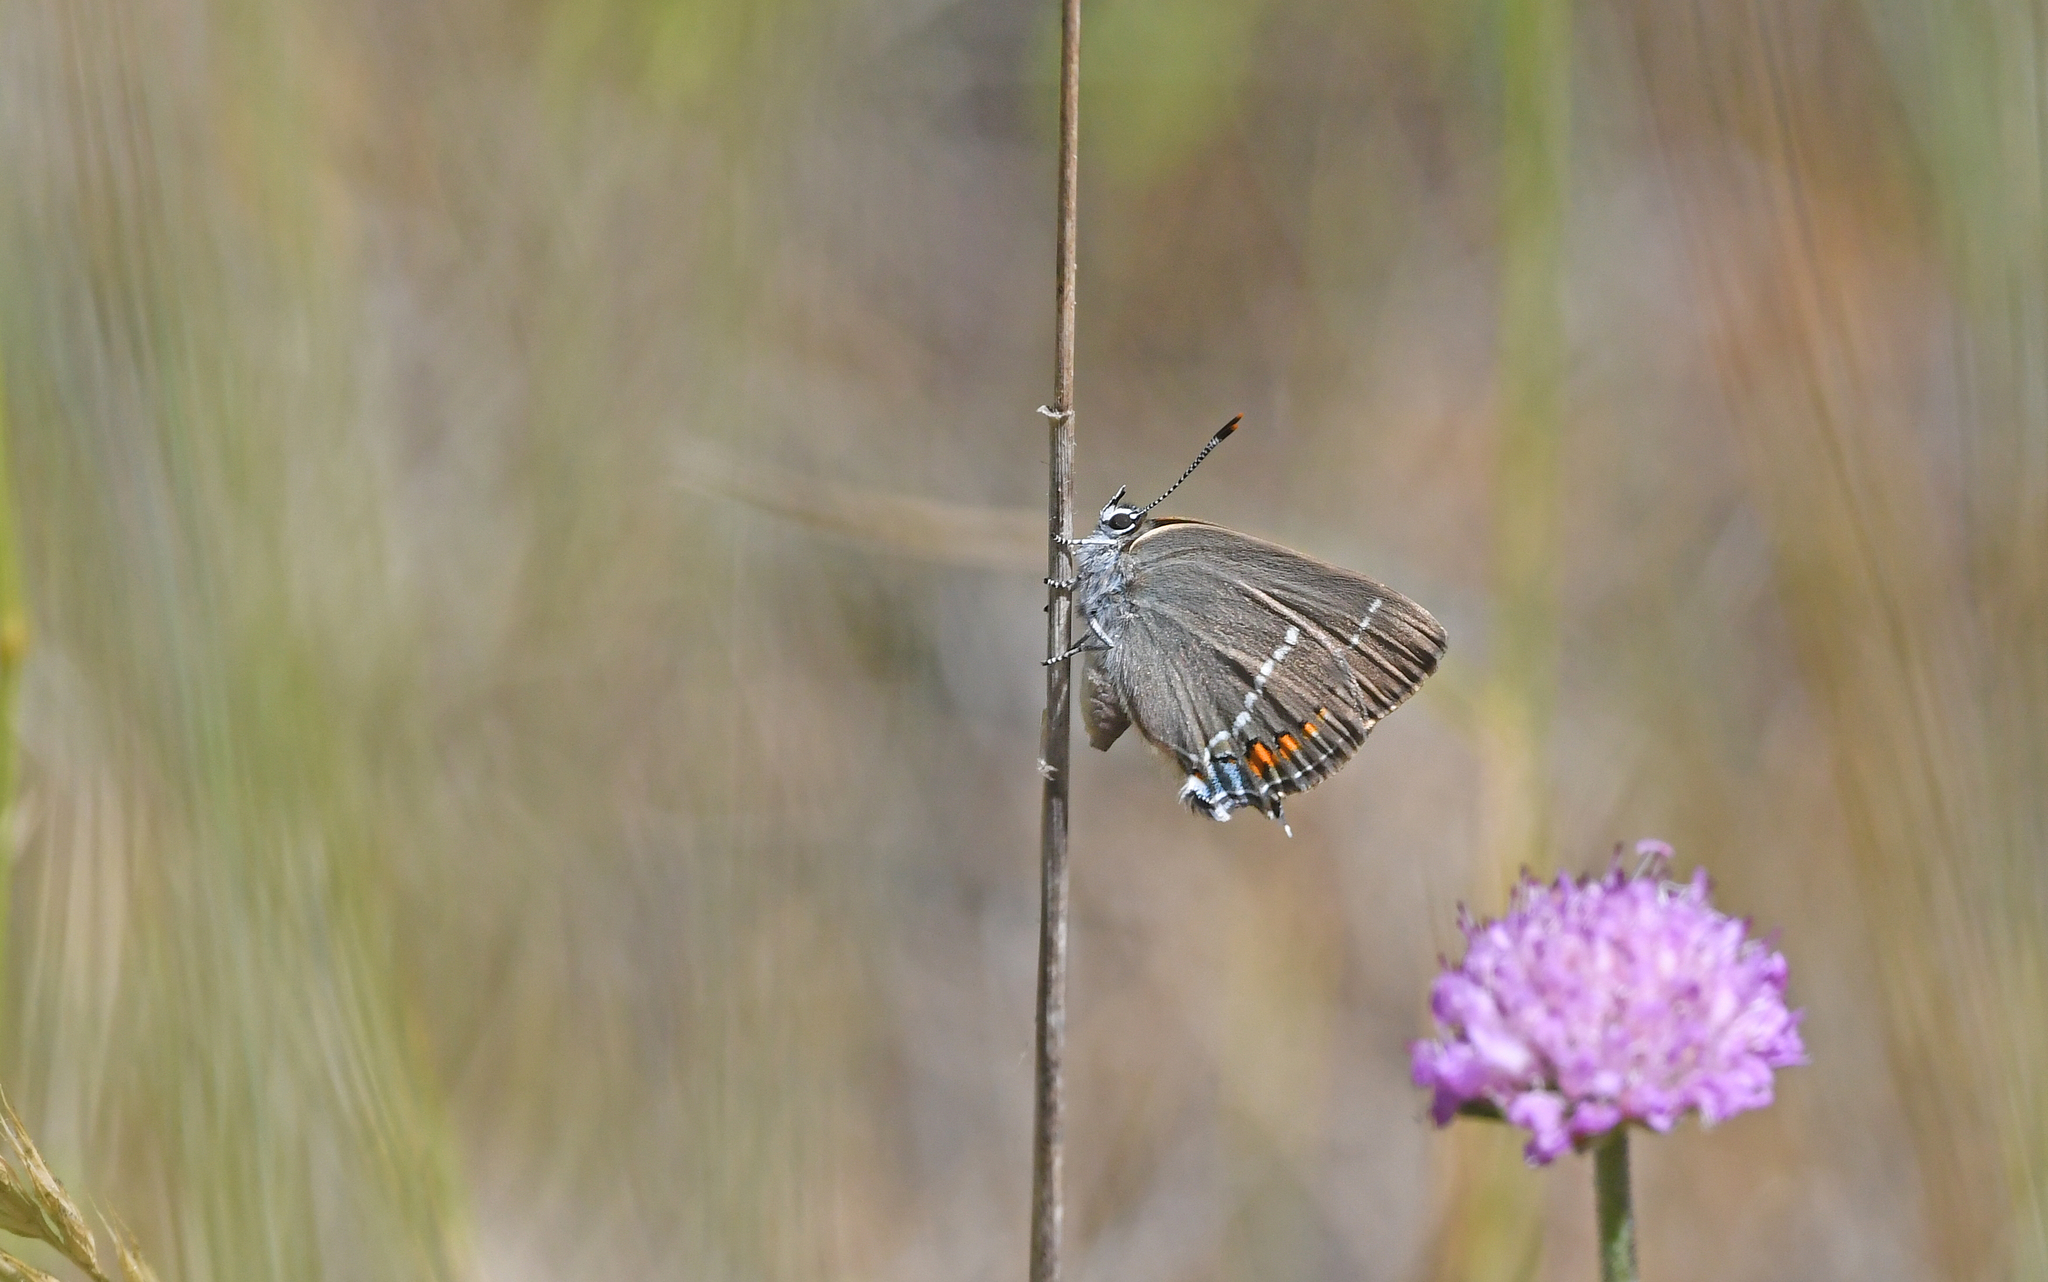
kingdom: Animalia
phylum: Arthropoda
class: Insecta
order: Lepidoptera
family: Lycaenidae
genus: Tuttiola
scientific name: Tuttiola spini
